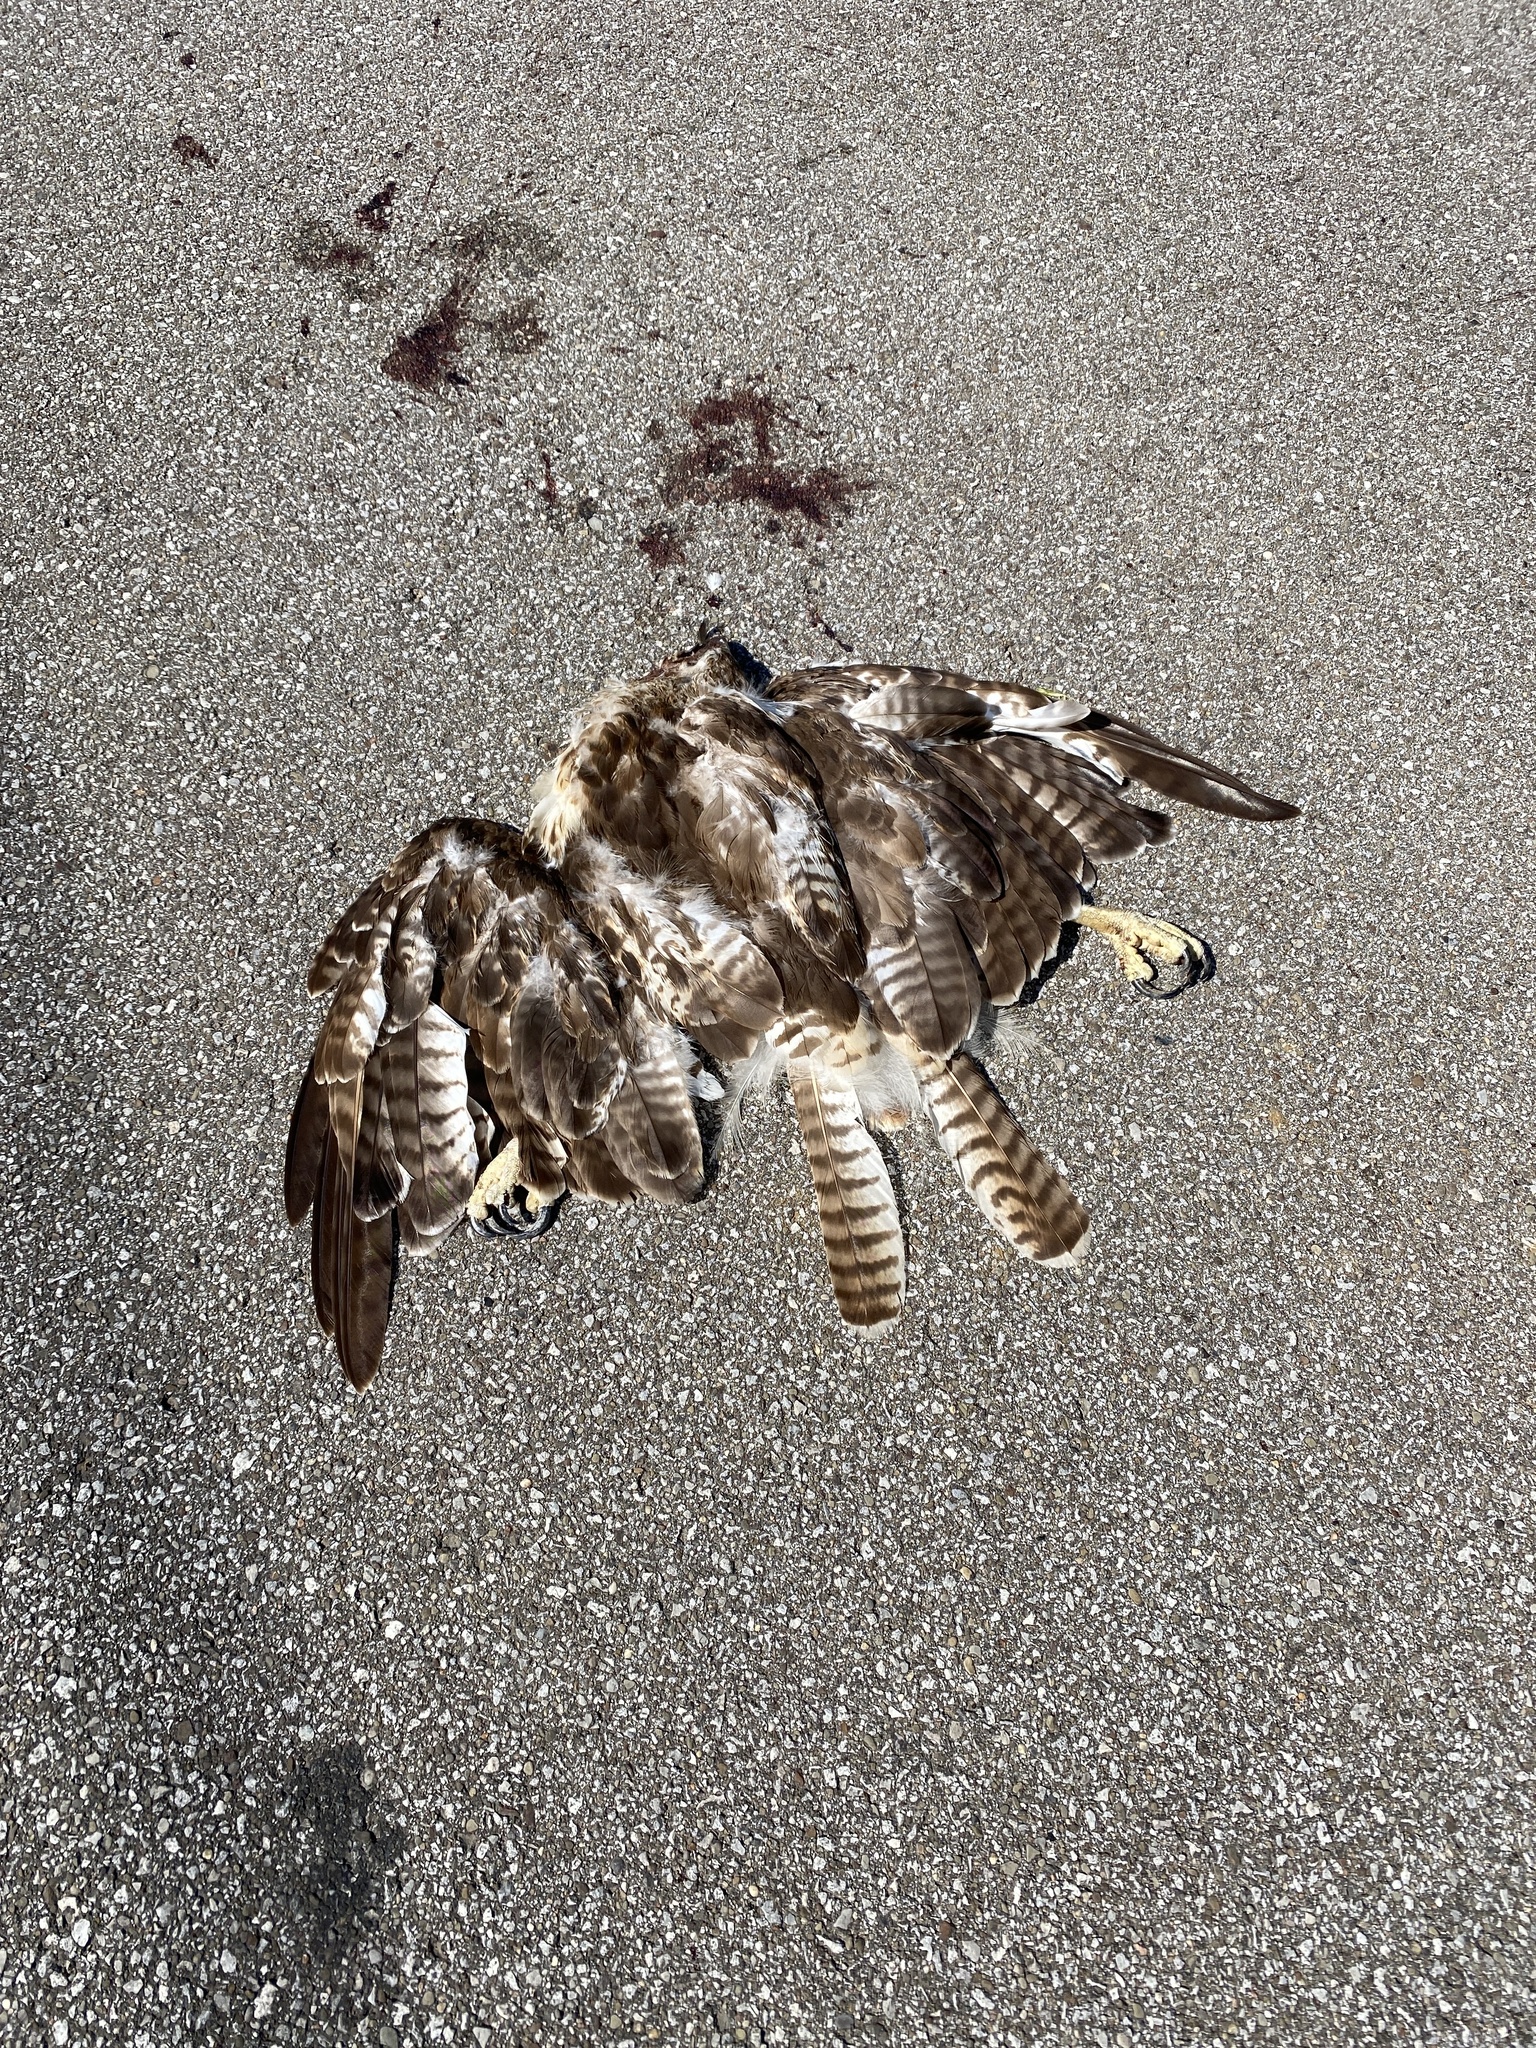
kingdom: Animalia
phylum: Chordata
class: Aves
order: Accipitriformes
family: Accipitridae
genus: Buteo
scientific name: Buteo jamaicensis
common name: Red-tailed hawk
